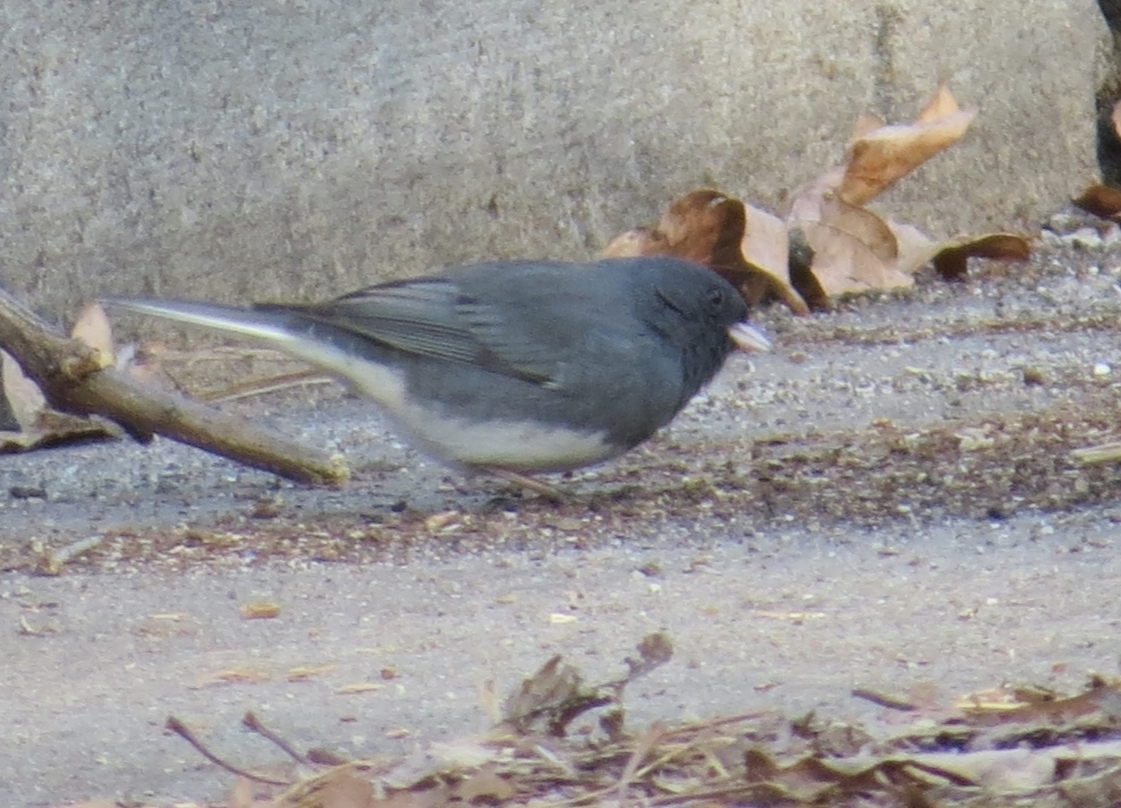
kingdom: Animalia
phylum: Chordata
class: Aves
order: Passeriformes
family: Passerellidae
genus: Junco
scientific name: Junco hyemalis
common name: Dark-eyed junco
